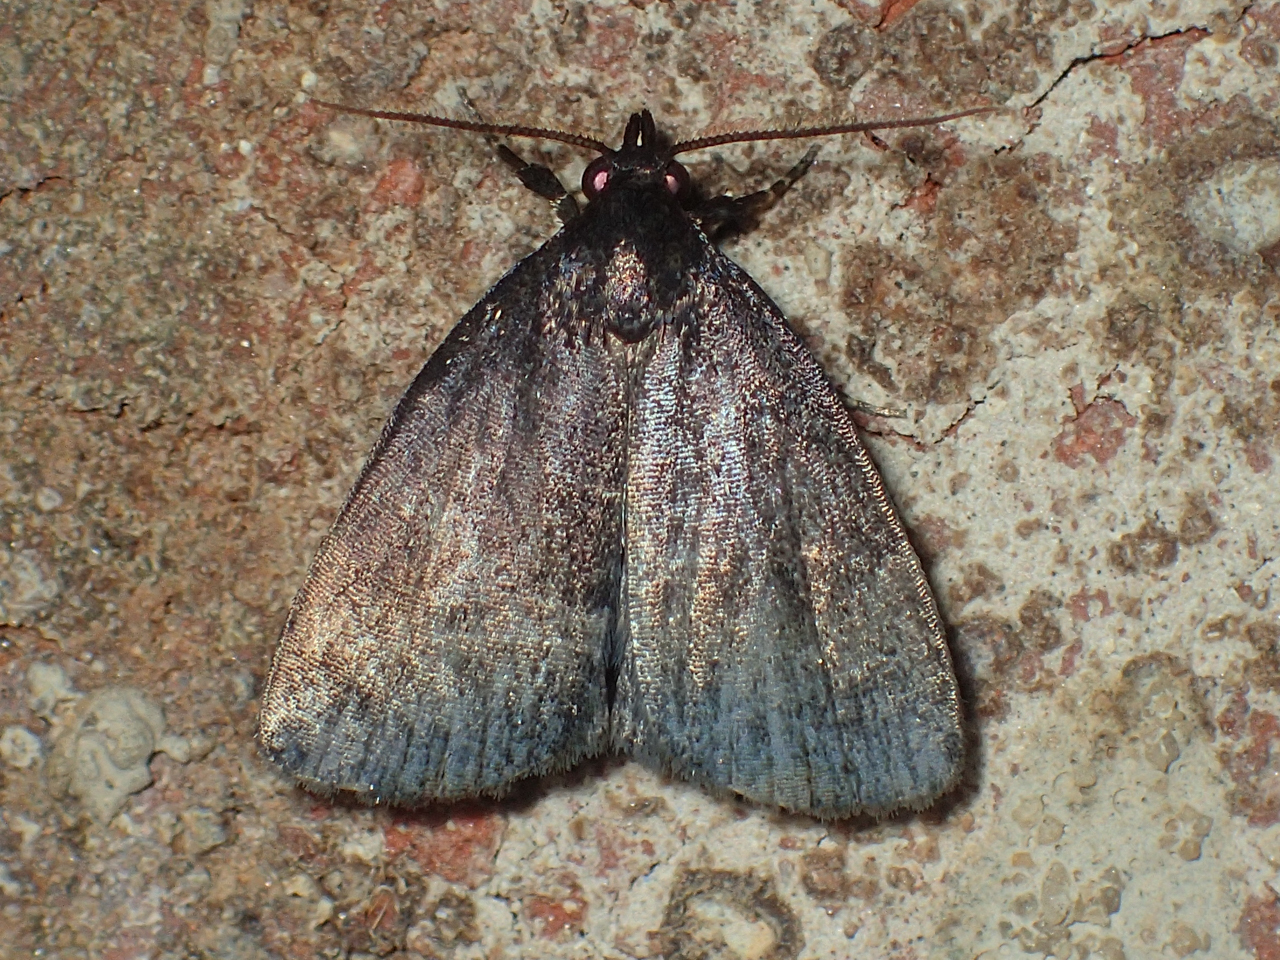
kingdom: Animalia
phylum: Arthropoda
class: Insecta
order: Lepidoptera
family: Erebidae
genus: Idia
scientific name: Idia rotundalis
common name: Rotund idia moth
